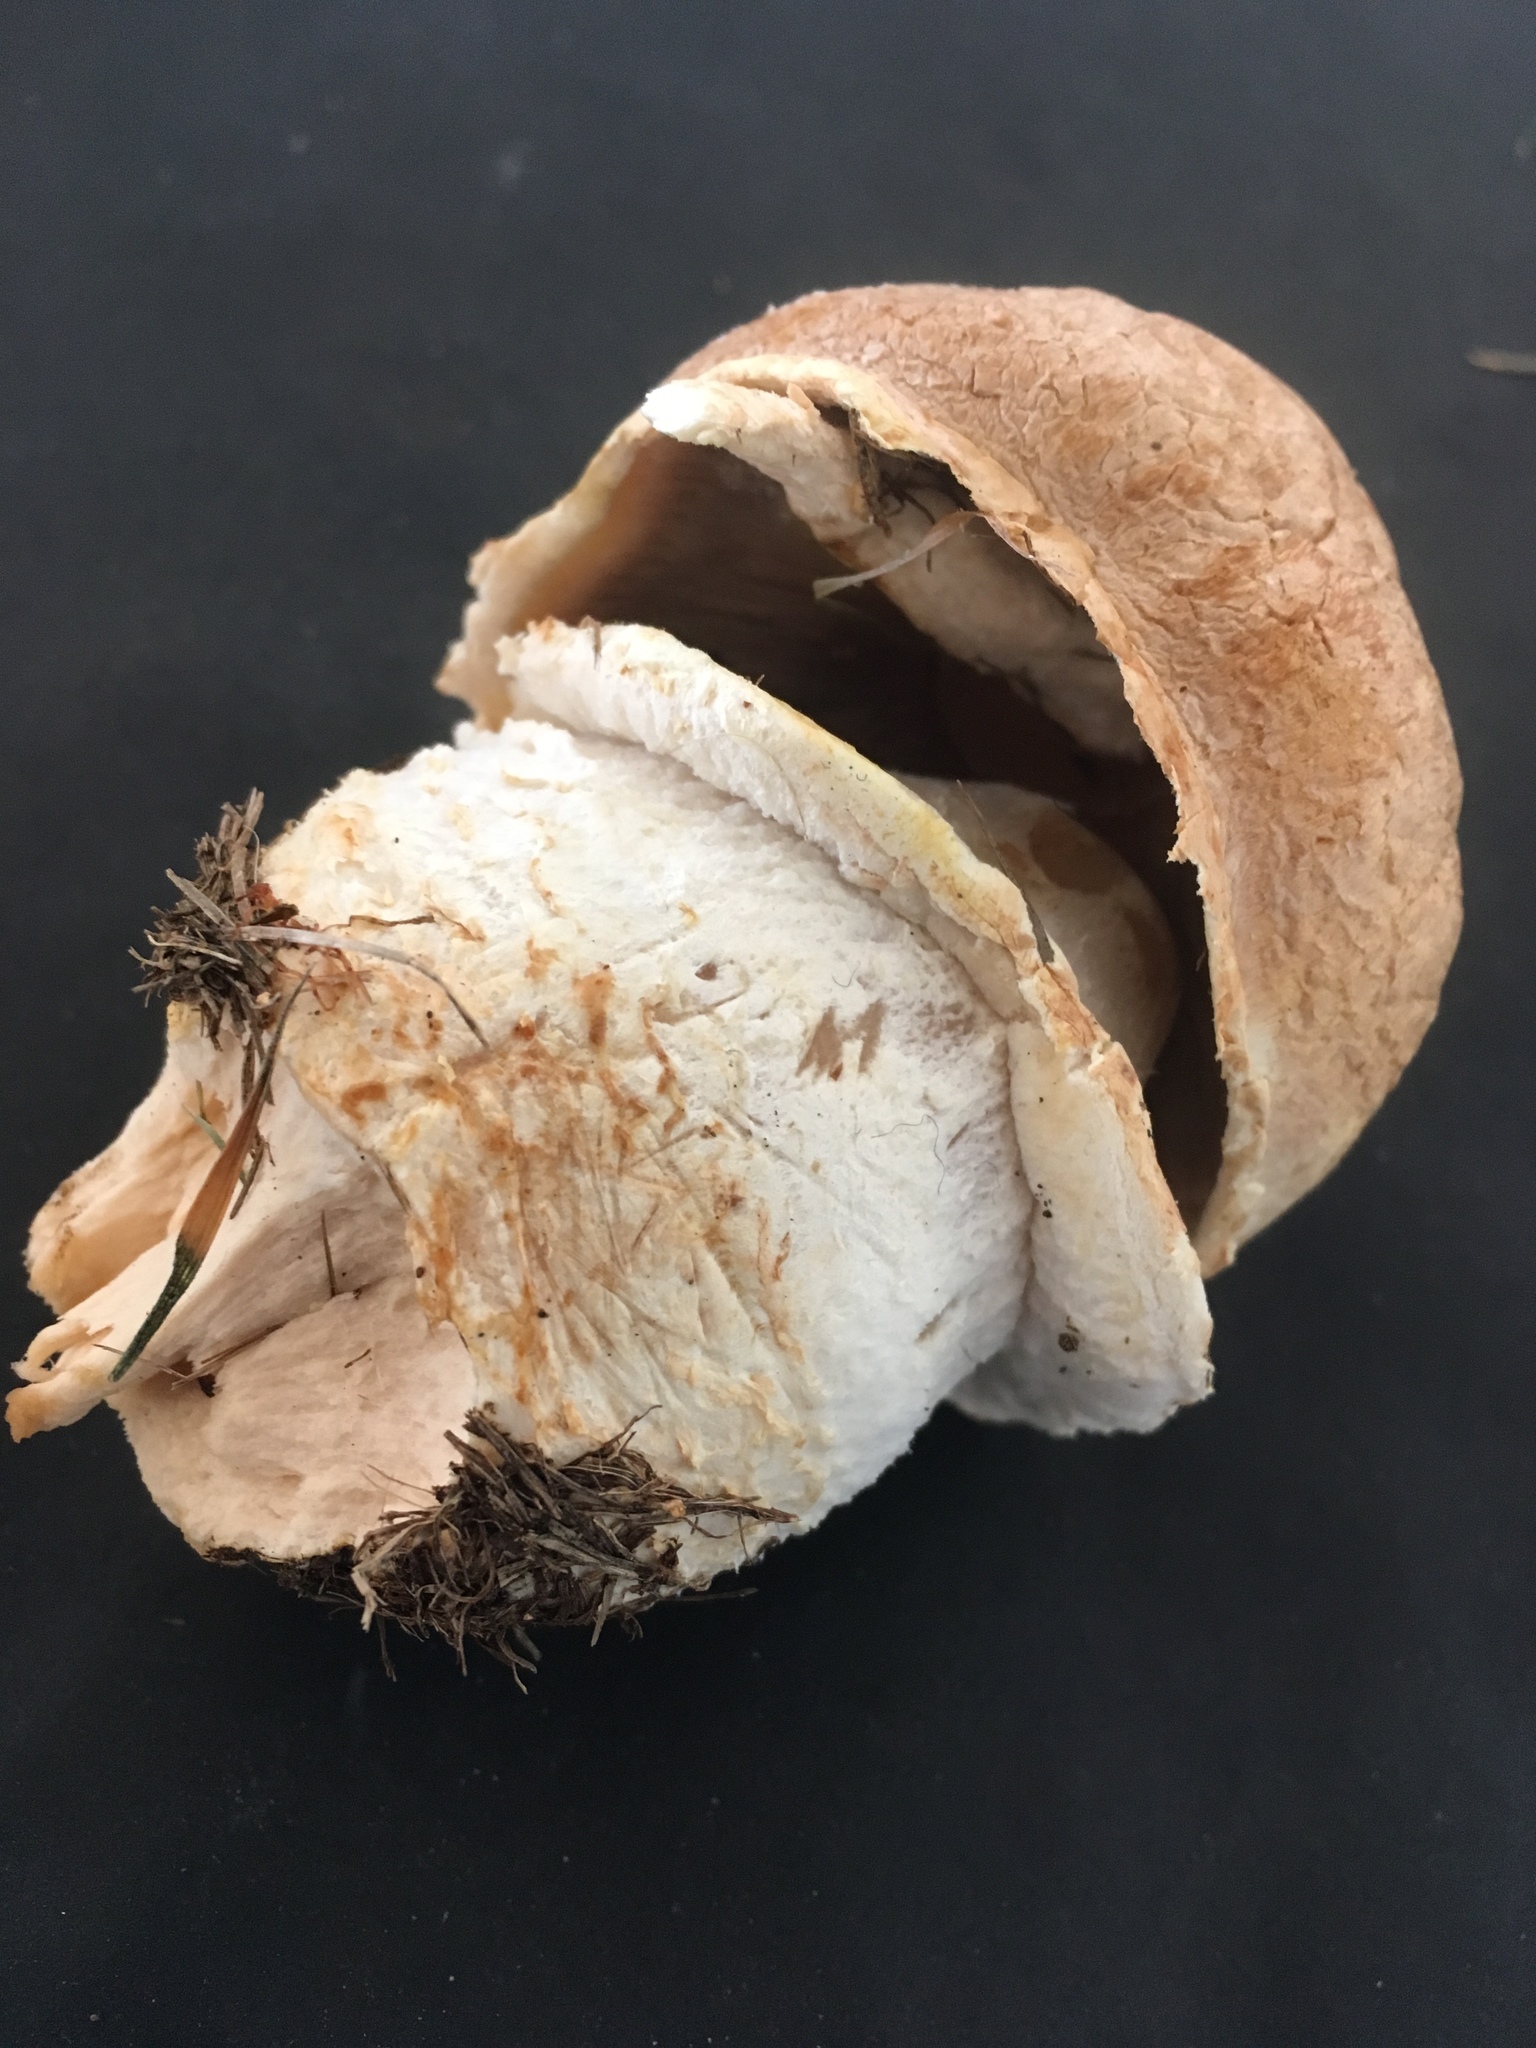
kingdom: Fungi
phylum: Basidiomycota
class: Agaricomycetes
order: Agaricales
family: Agaricaceae
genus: Agaricus
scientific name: Agaricus crocodilinus
